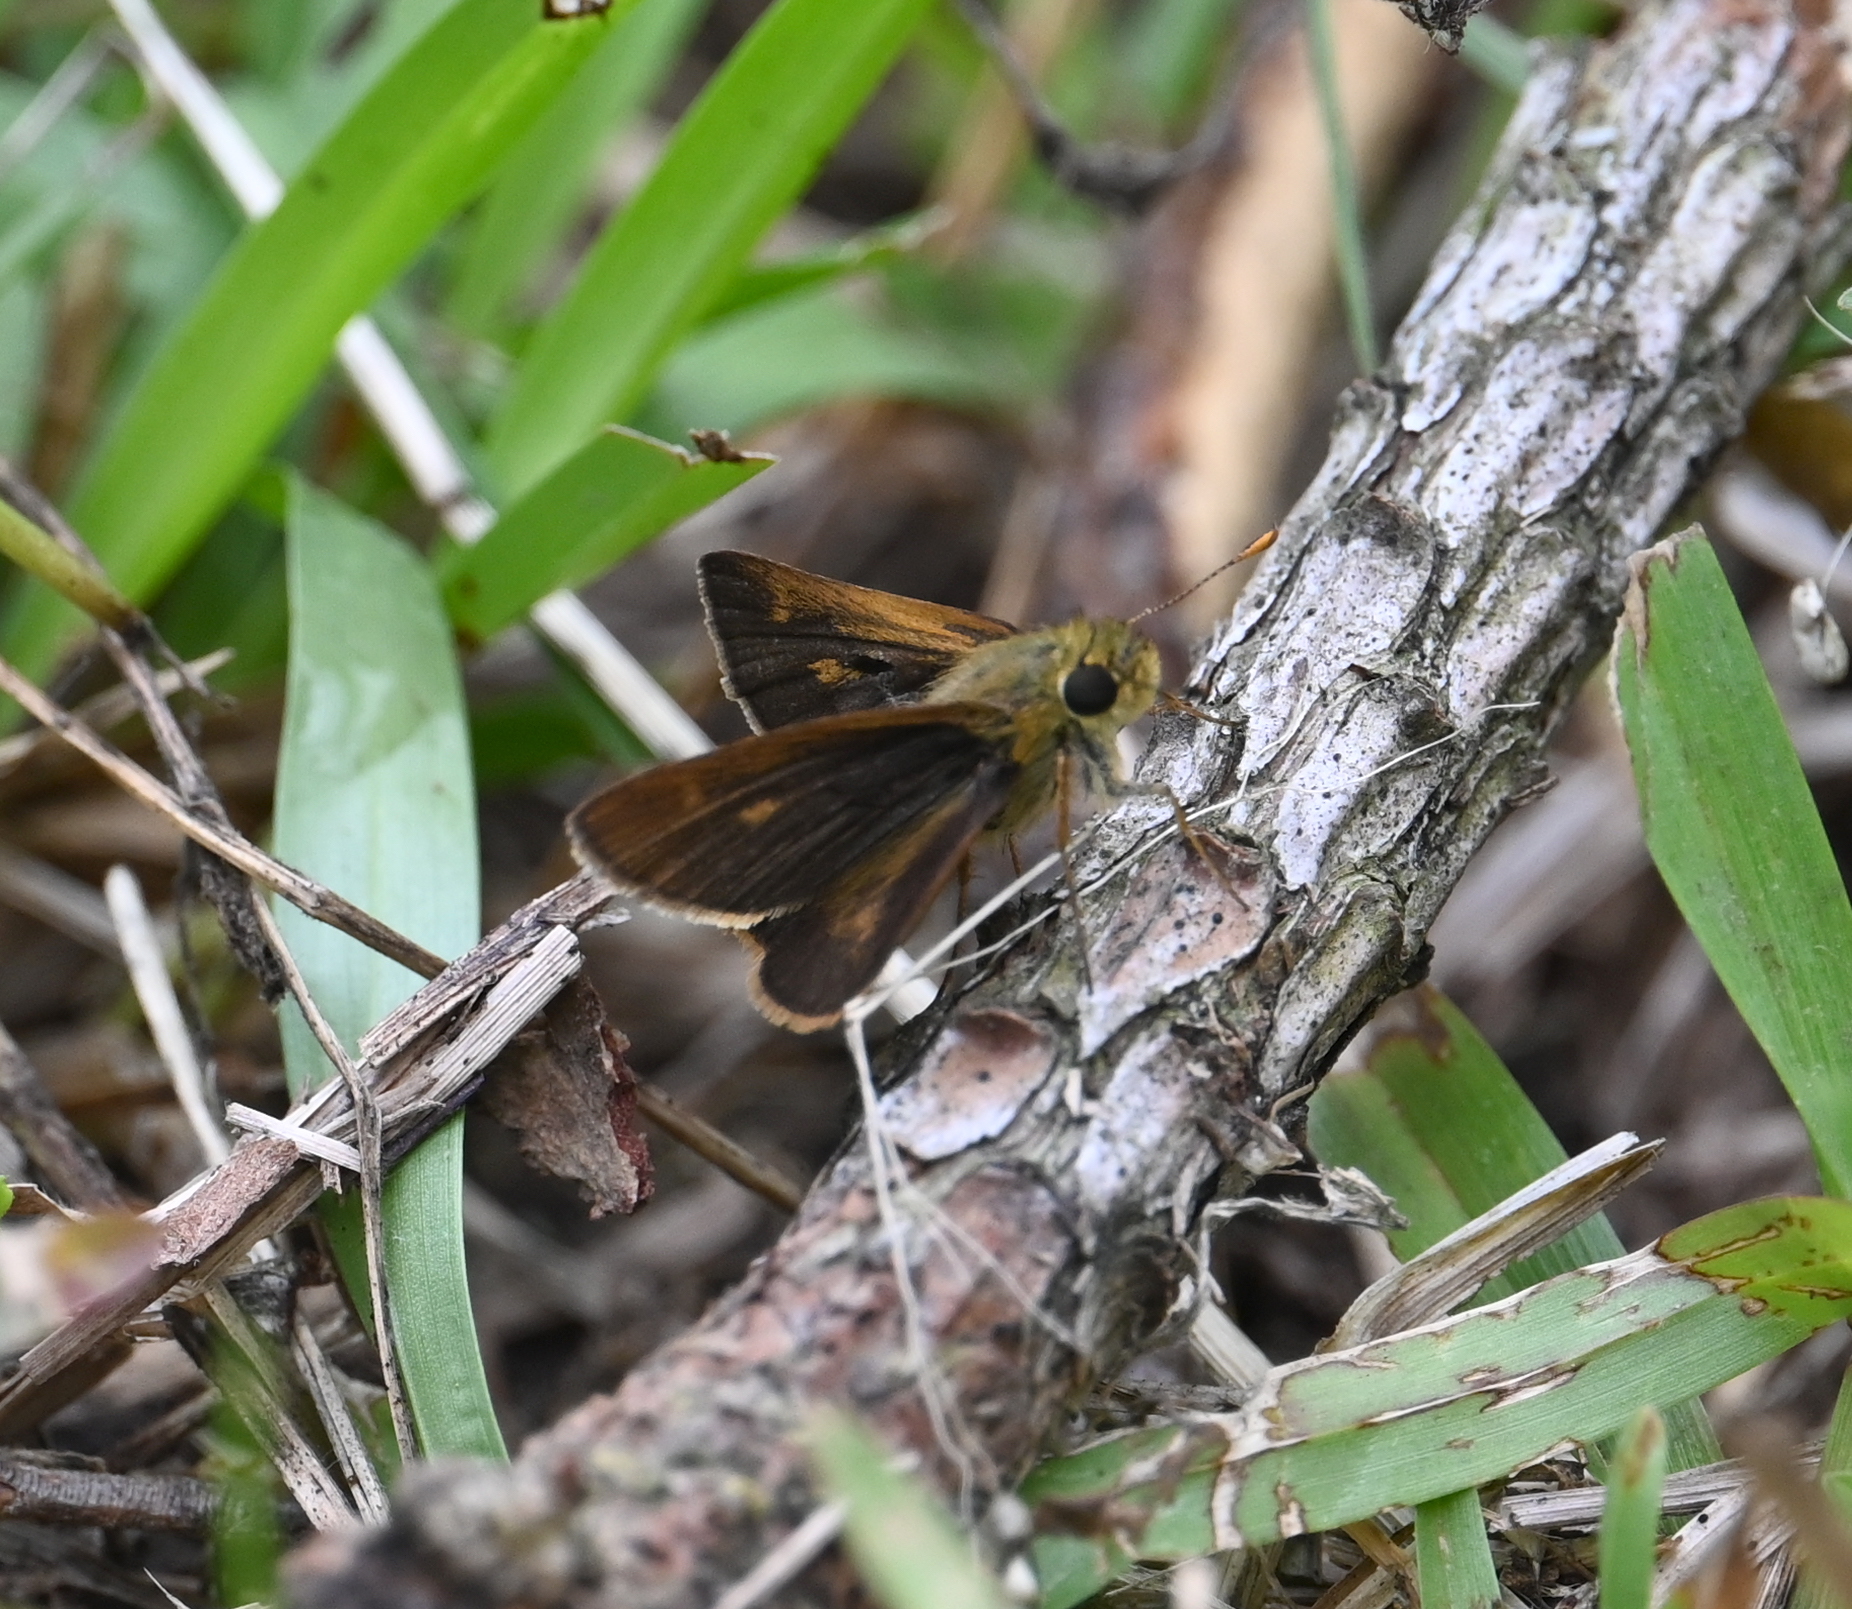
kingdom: Animalia
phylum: Arthropoda
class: Insecta
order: Lepidoptera
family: Hesperiidae
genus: Polites
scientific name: Polites otho
